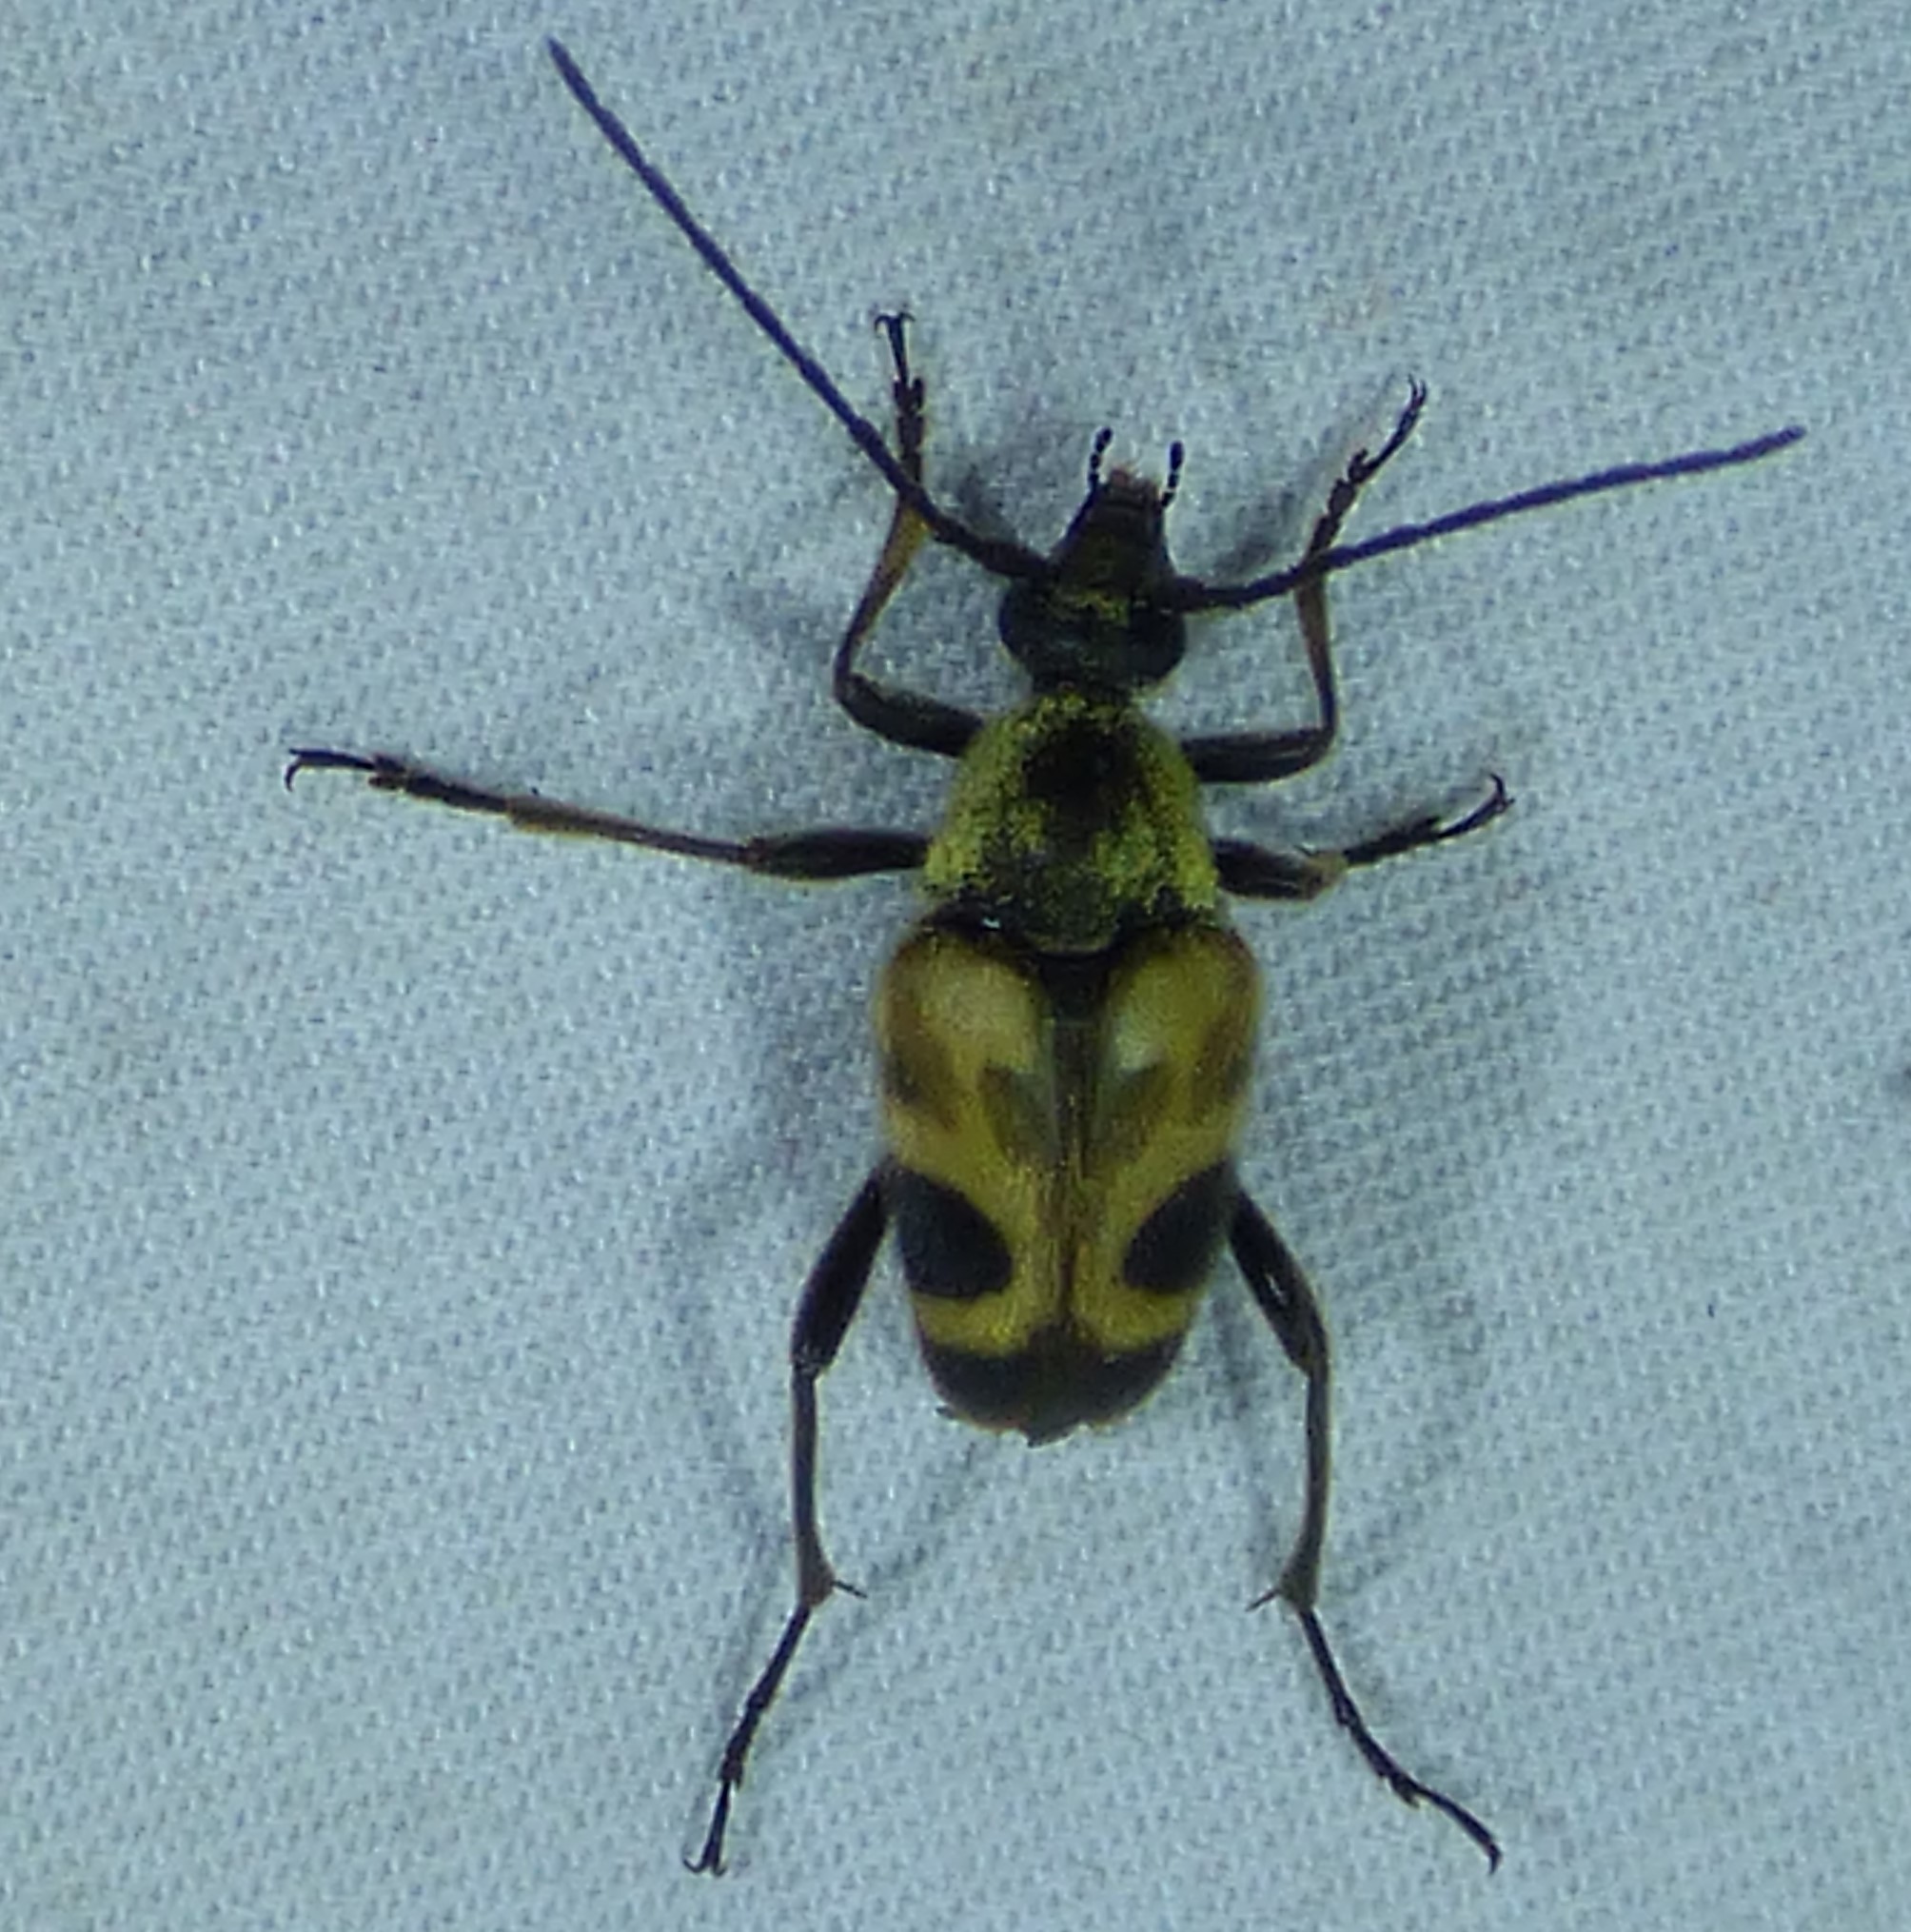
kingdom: Animalia
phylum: Arthropoda
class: Insecta
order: Coleoptera
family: Cerambycidae
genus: Judolia
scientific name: Judolia cordifera
